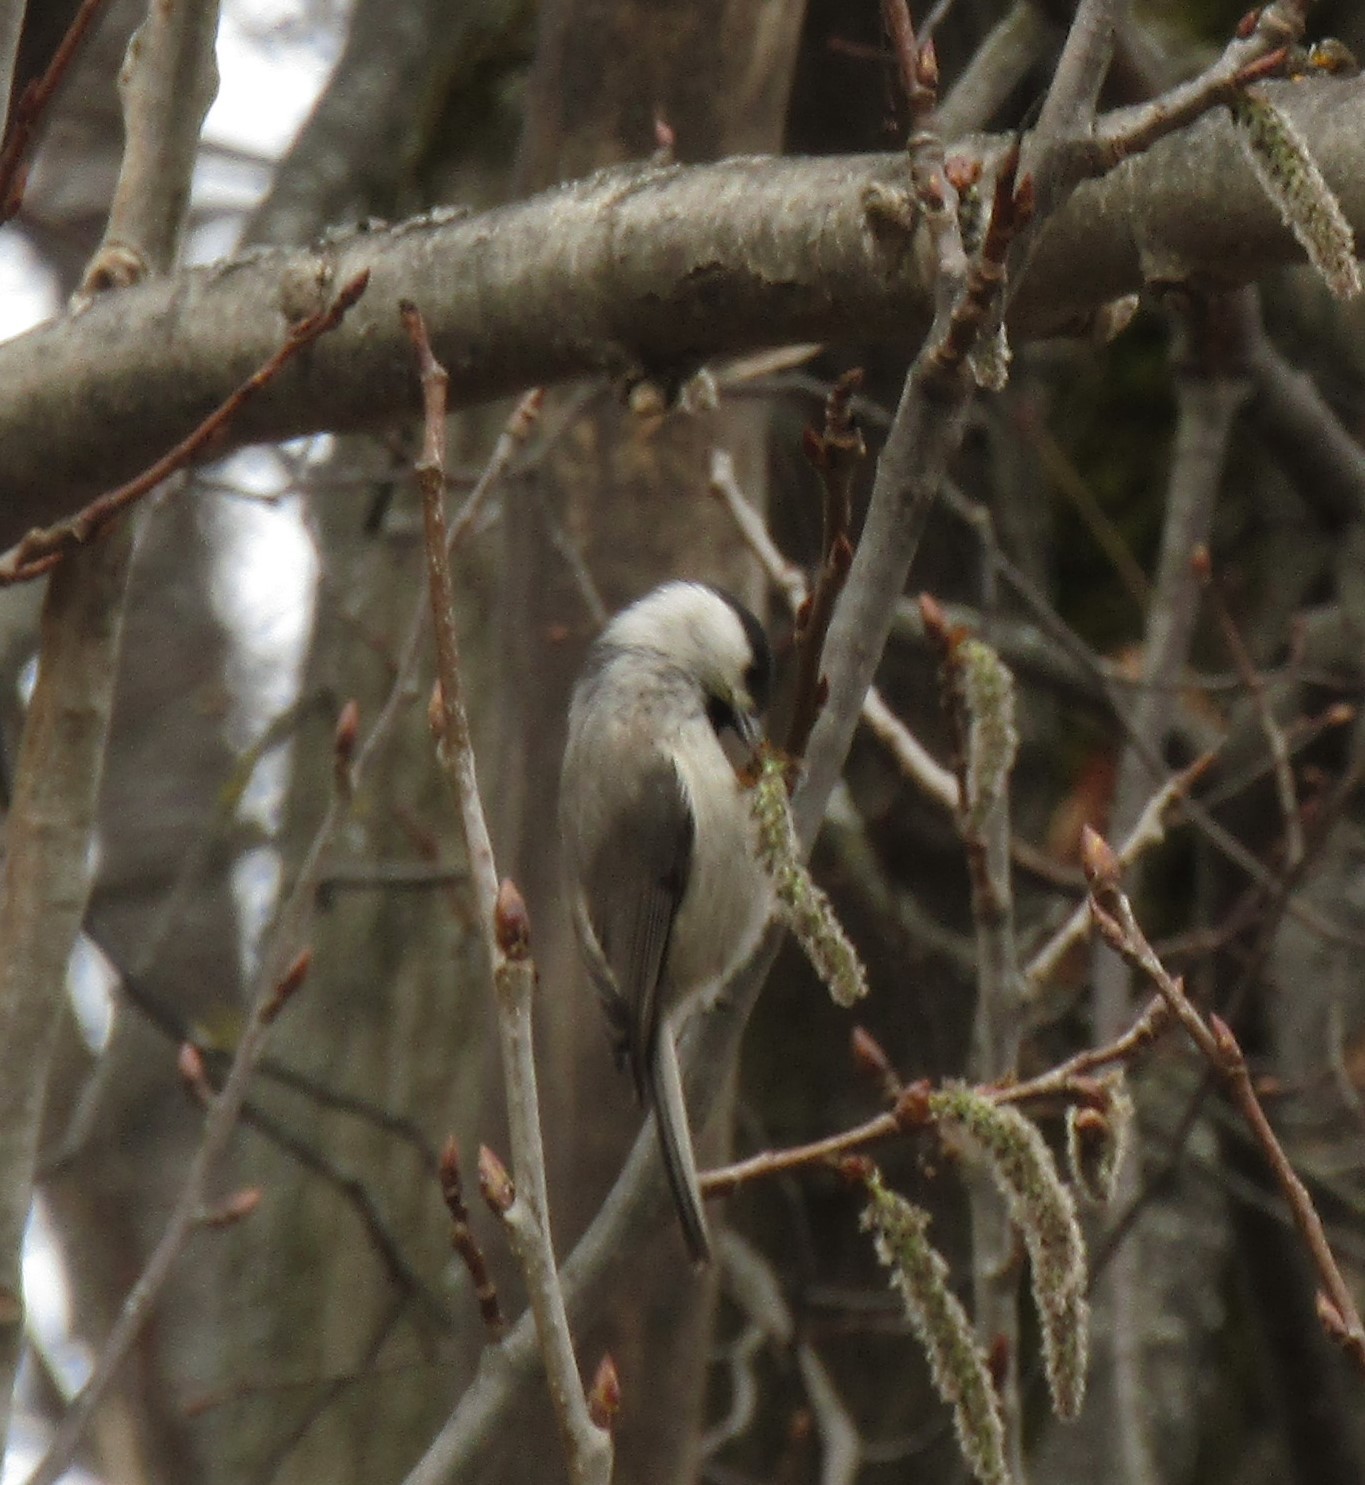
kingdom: Animalia
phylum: Chordata
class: Aves
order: Passeriformes
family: Paridae
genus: Poecile
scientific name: Poecile palustris
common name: Marsh tit
